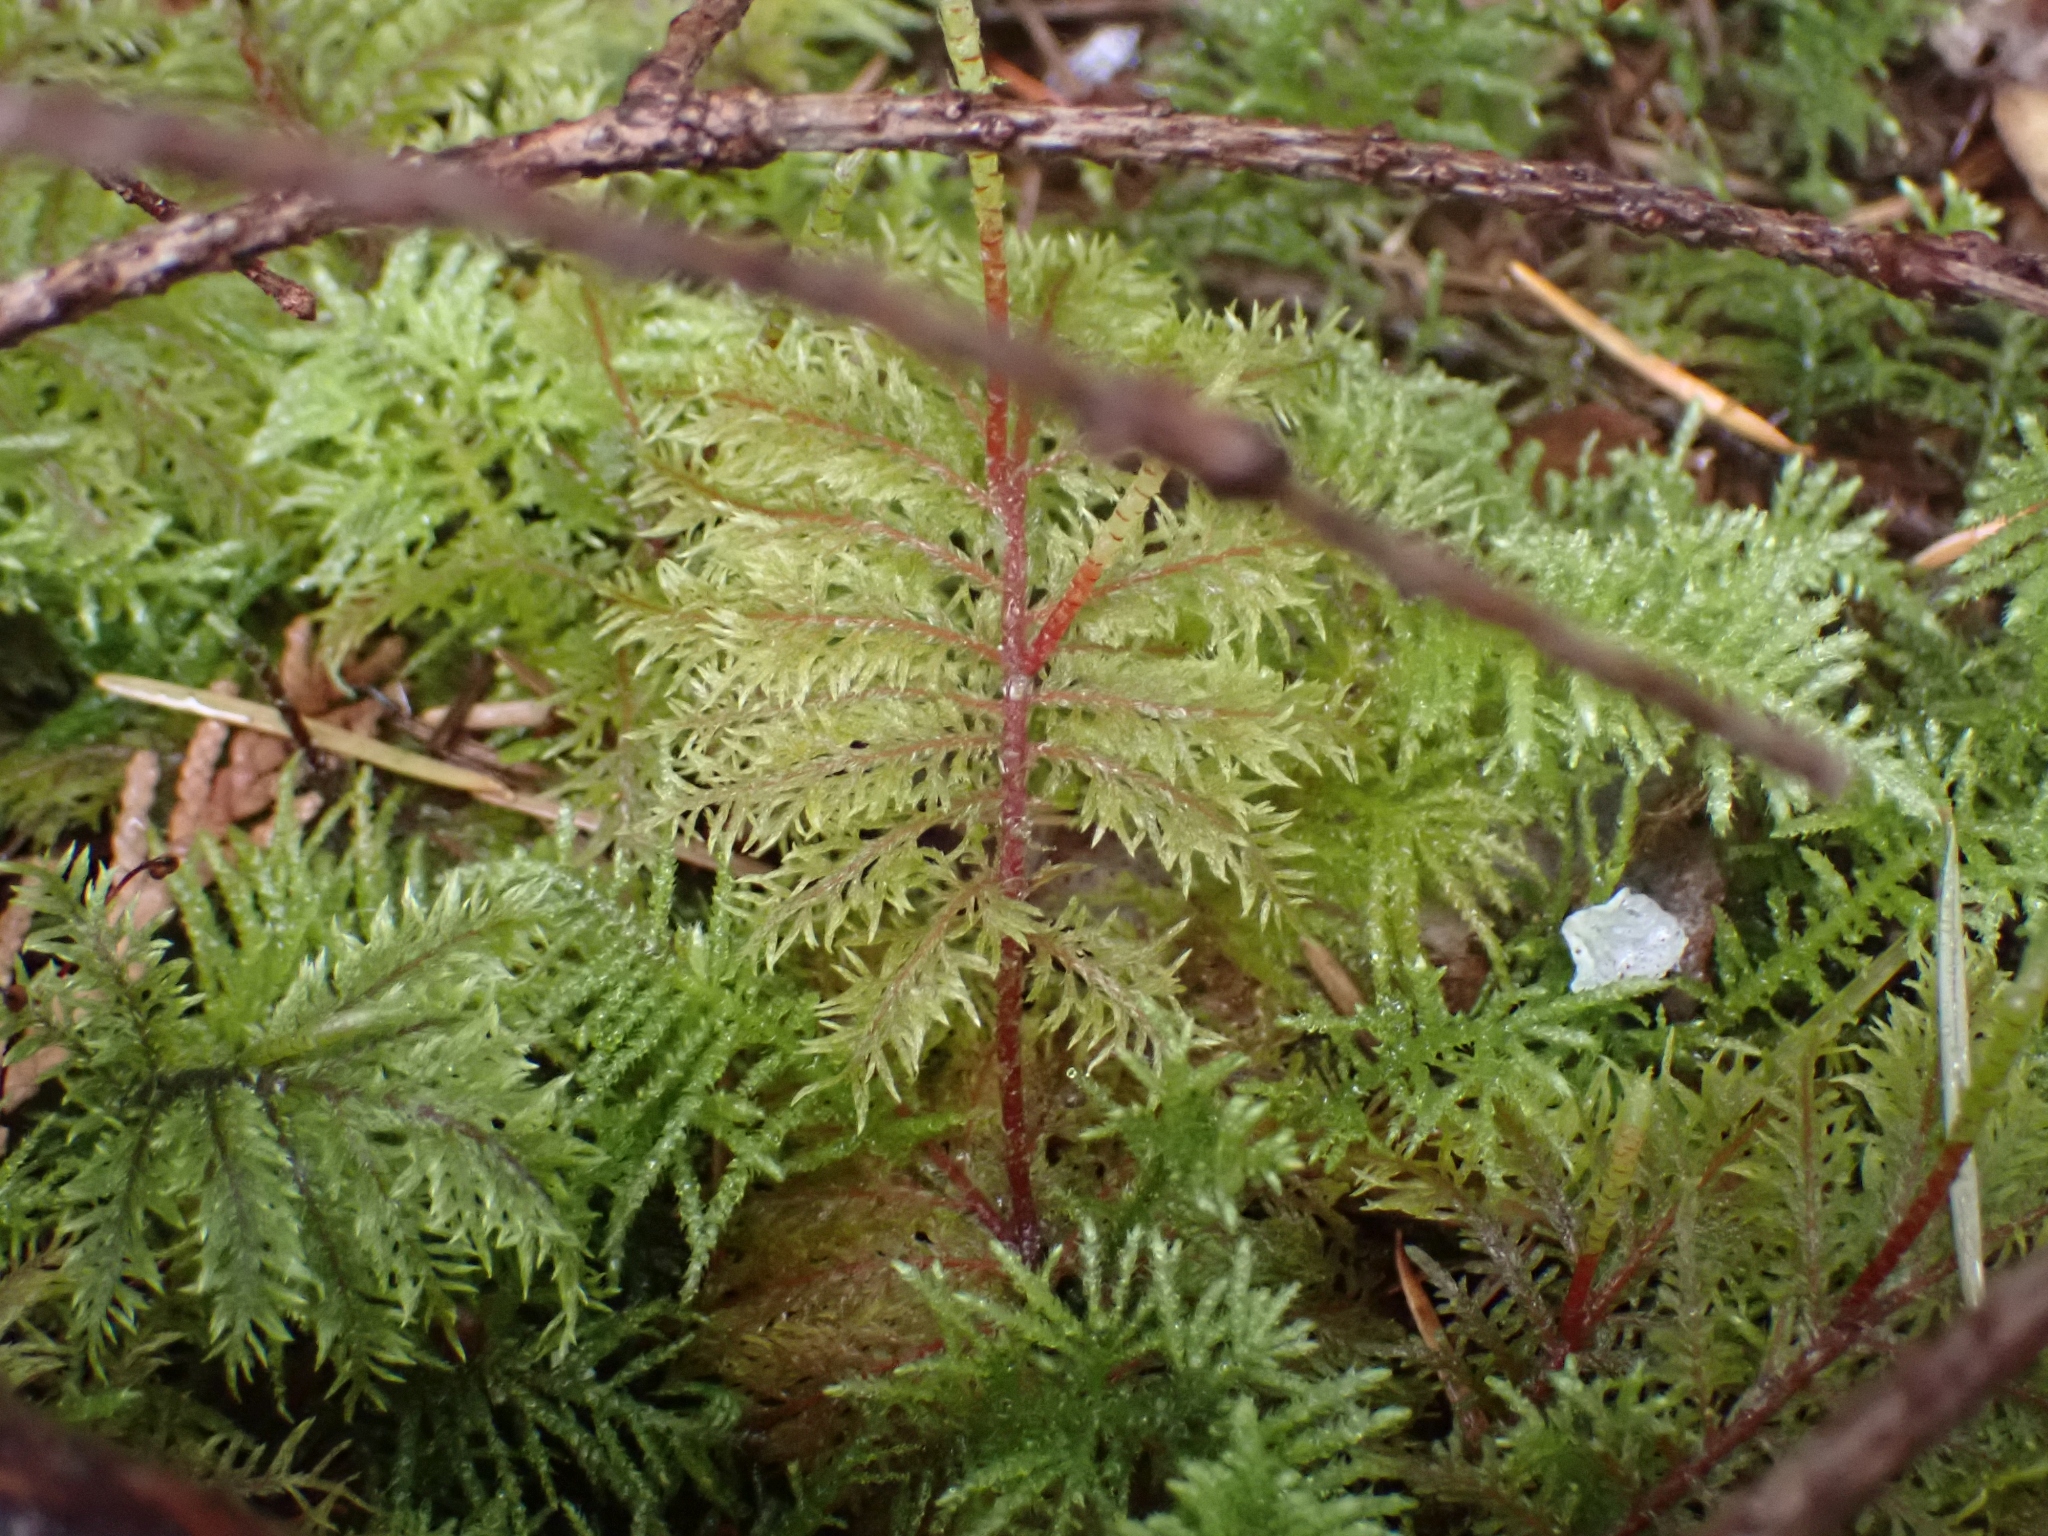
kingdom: Plantae
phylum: Bryophyta
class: Bryopsida
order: Hypnales
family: Hylocomiaceae
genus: Hylocomium
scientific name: Hylocomium splendens
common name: Stairstep moss
